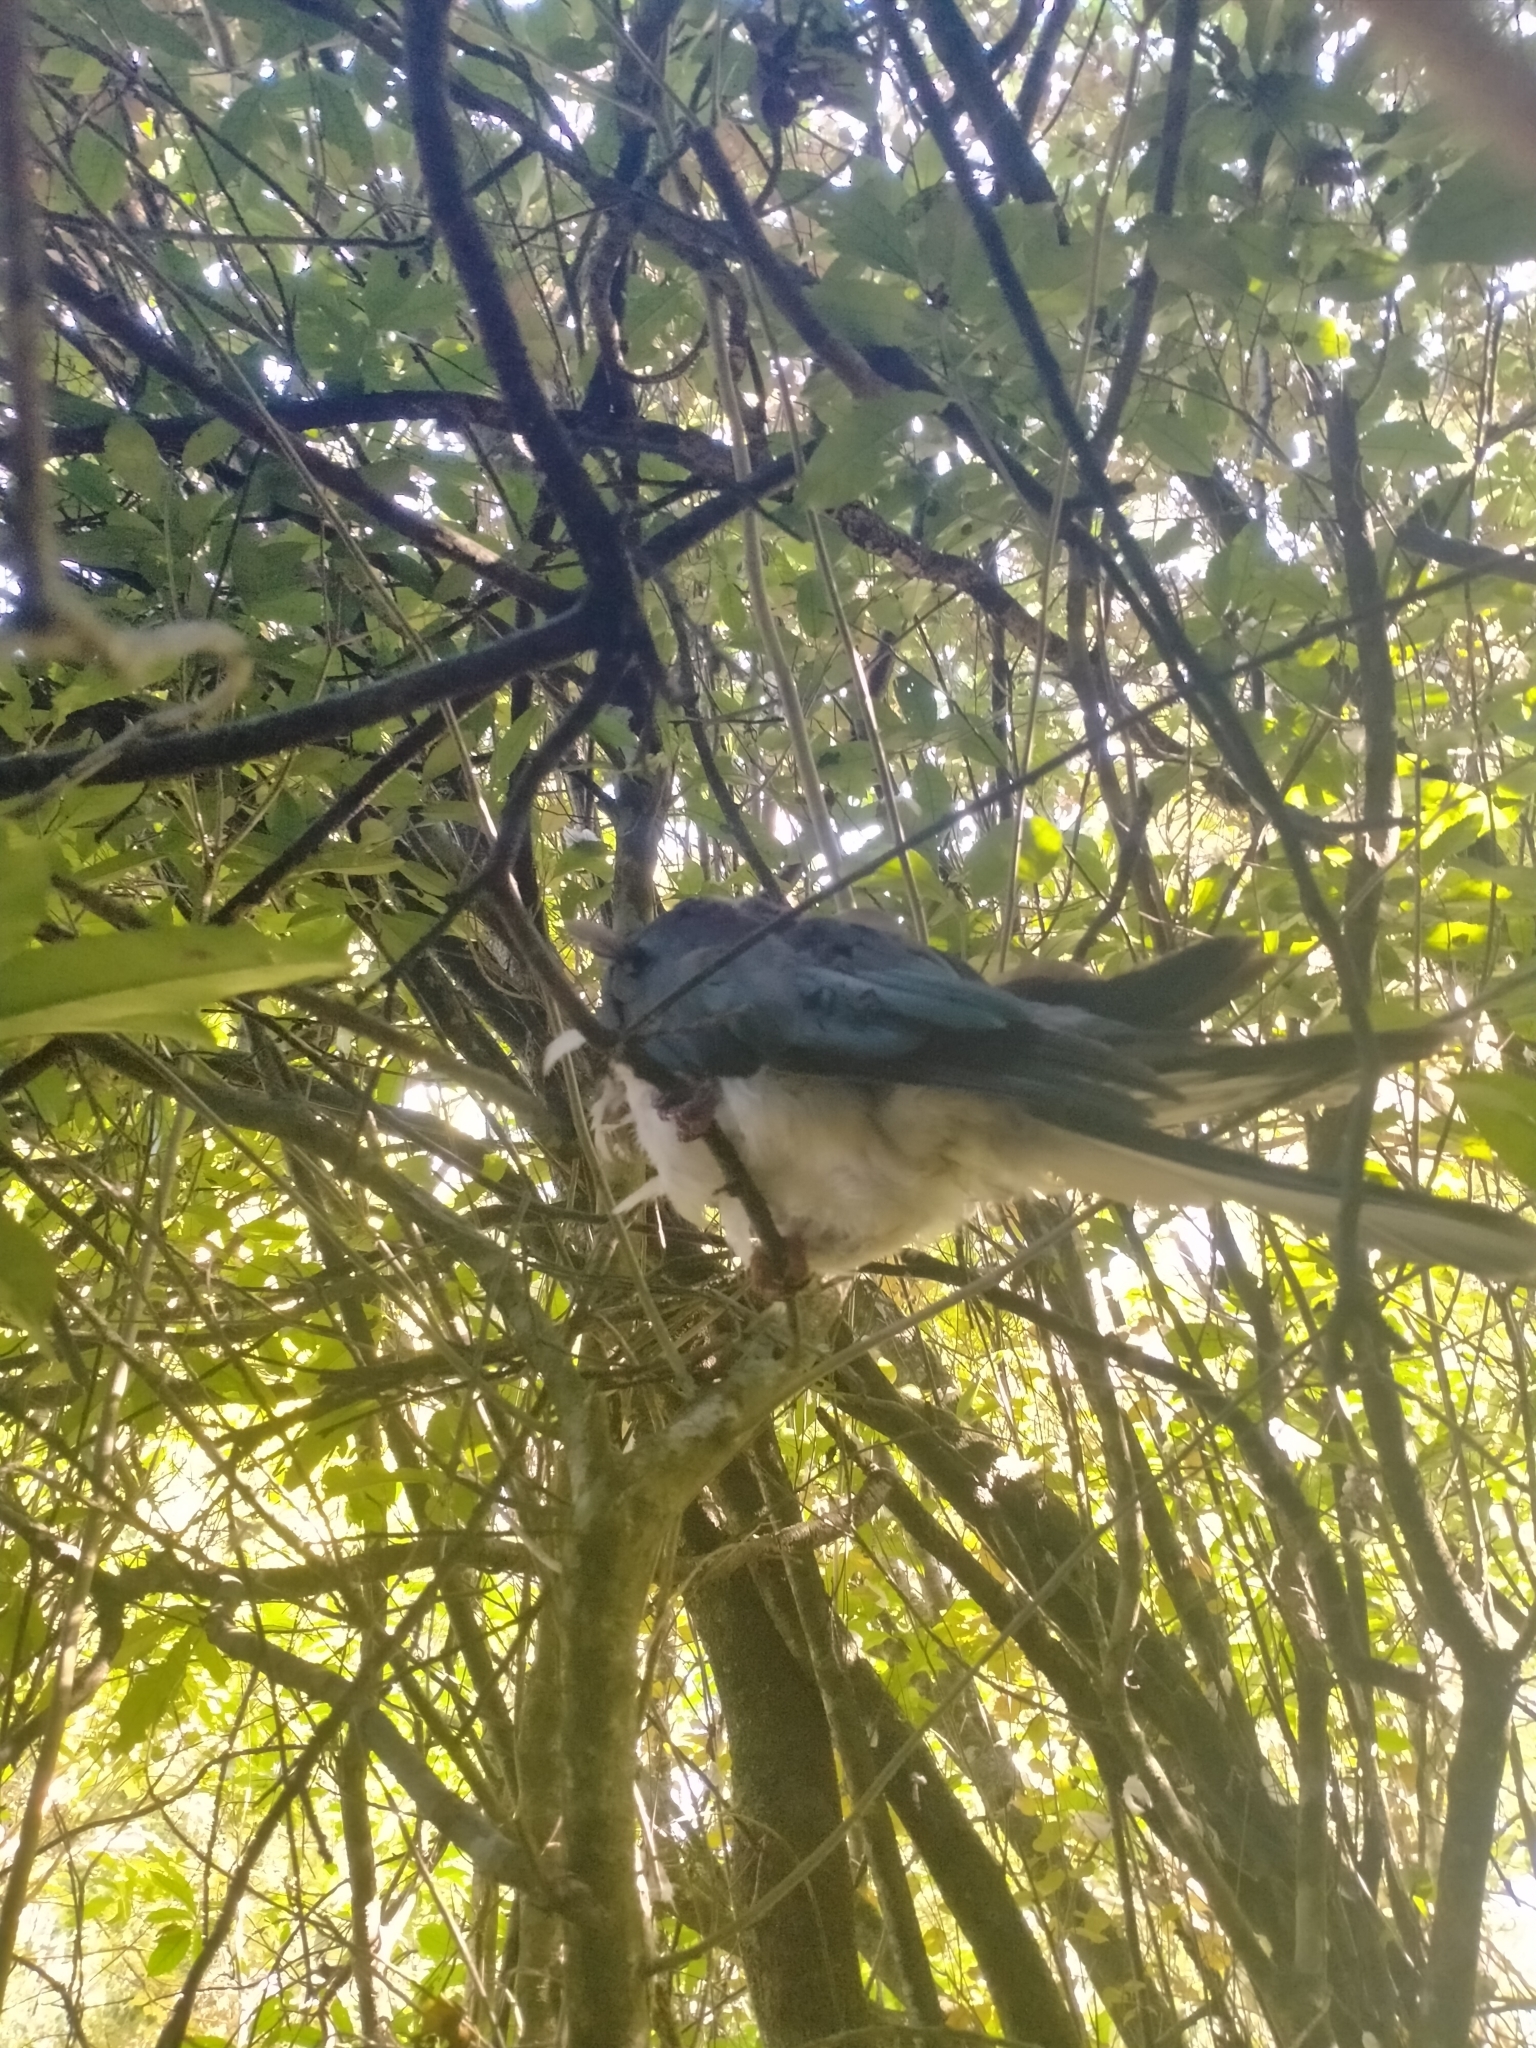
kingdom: Animalia
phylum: Chordata
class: Aves
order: Columbiformes
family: Columbidae
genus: Hemiphaga
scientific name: Hemiphaga novaeseelandiae
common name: New zealand pigeon
